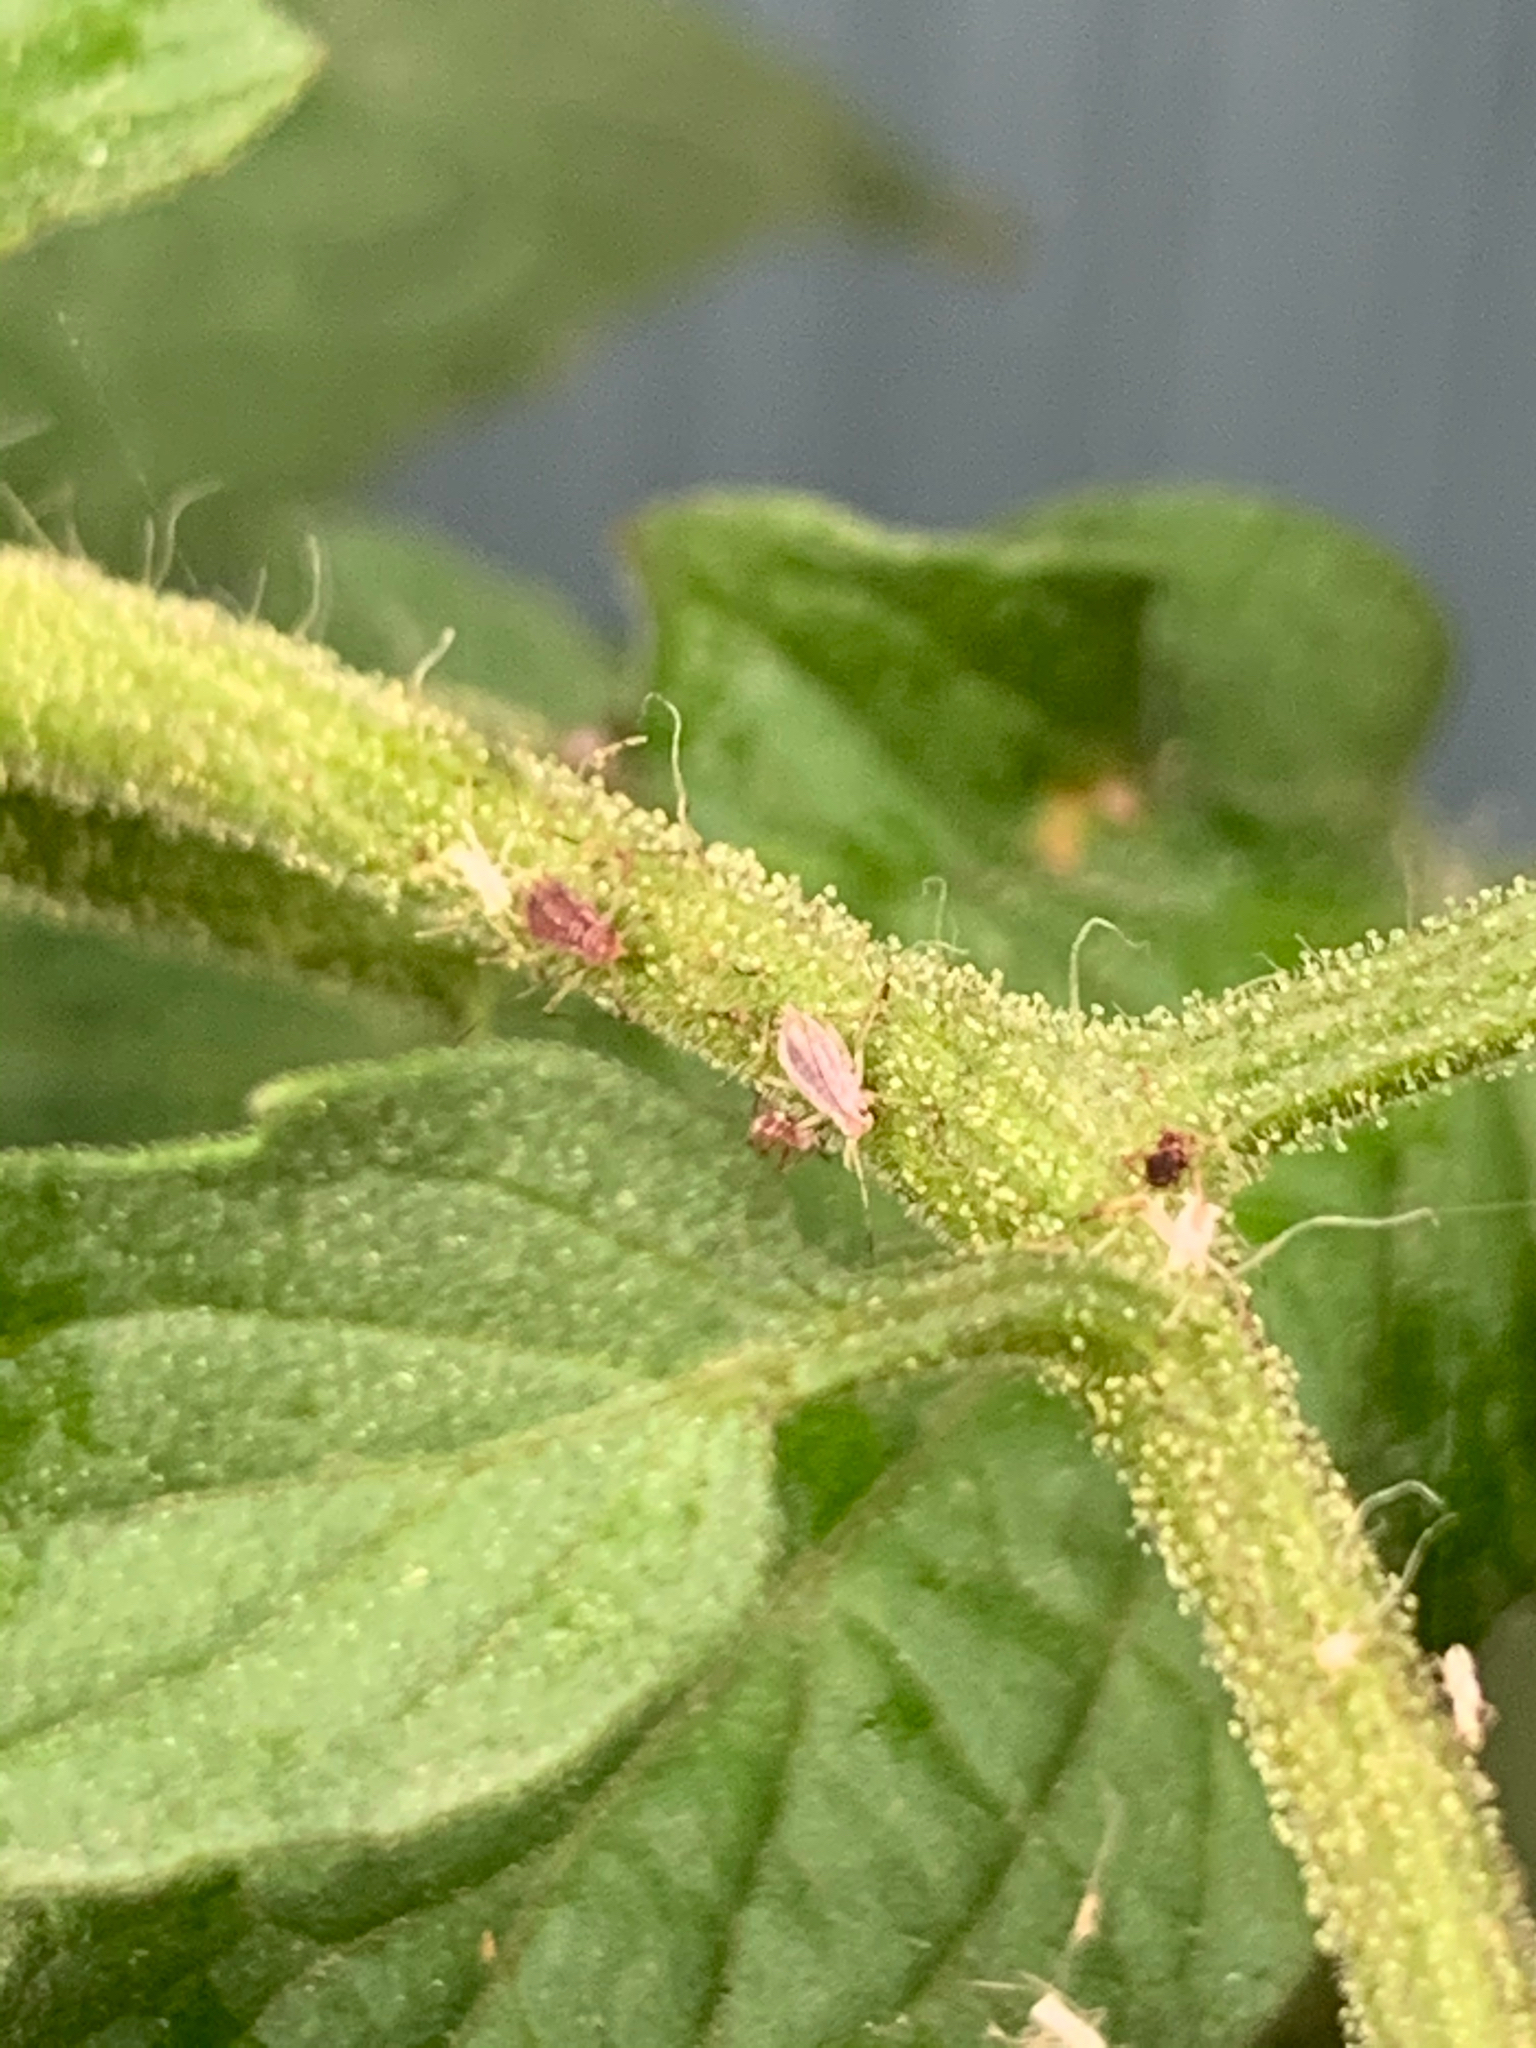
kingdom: Animalia
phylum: Arthropoda
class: Insecta
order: Hemiptera
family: Aphididae
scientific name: Aphididae
